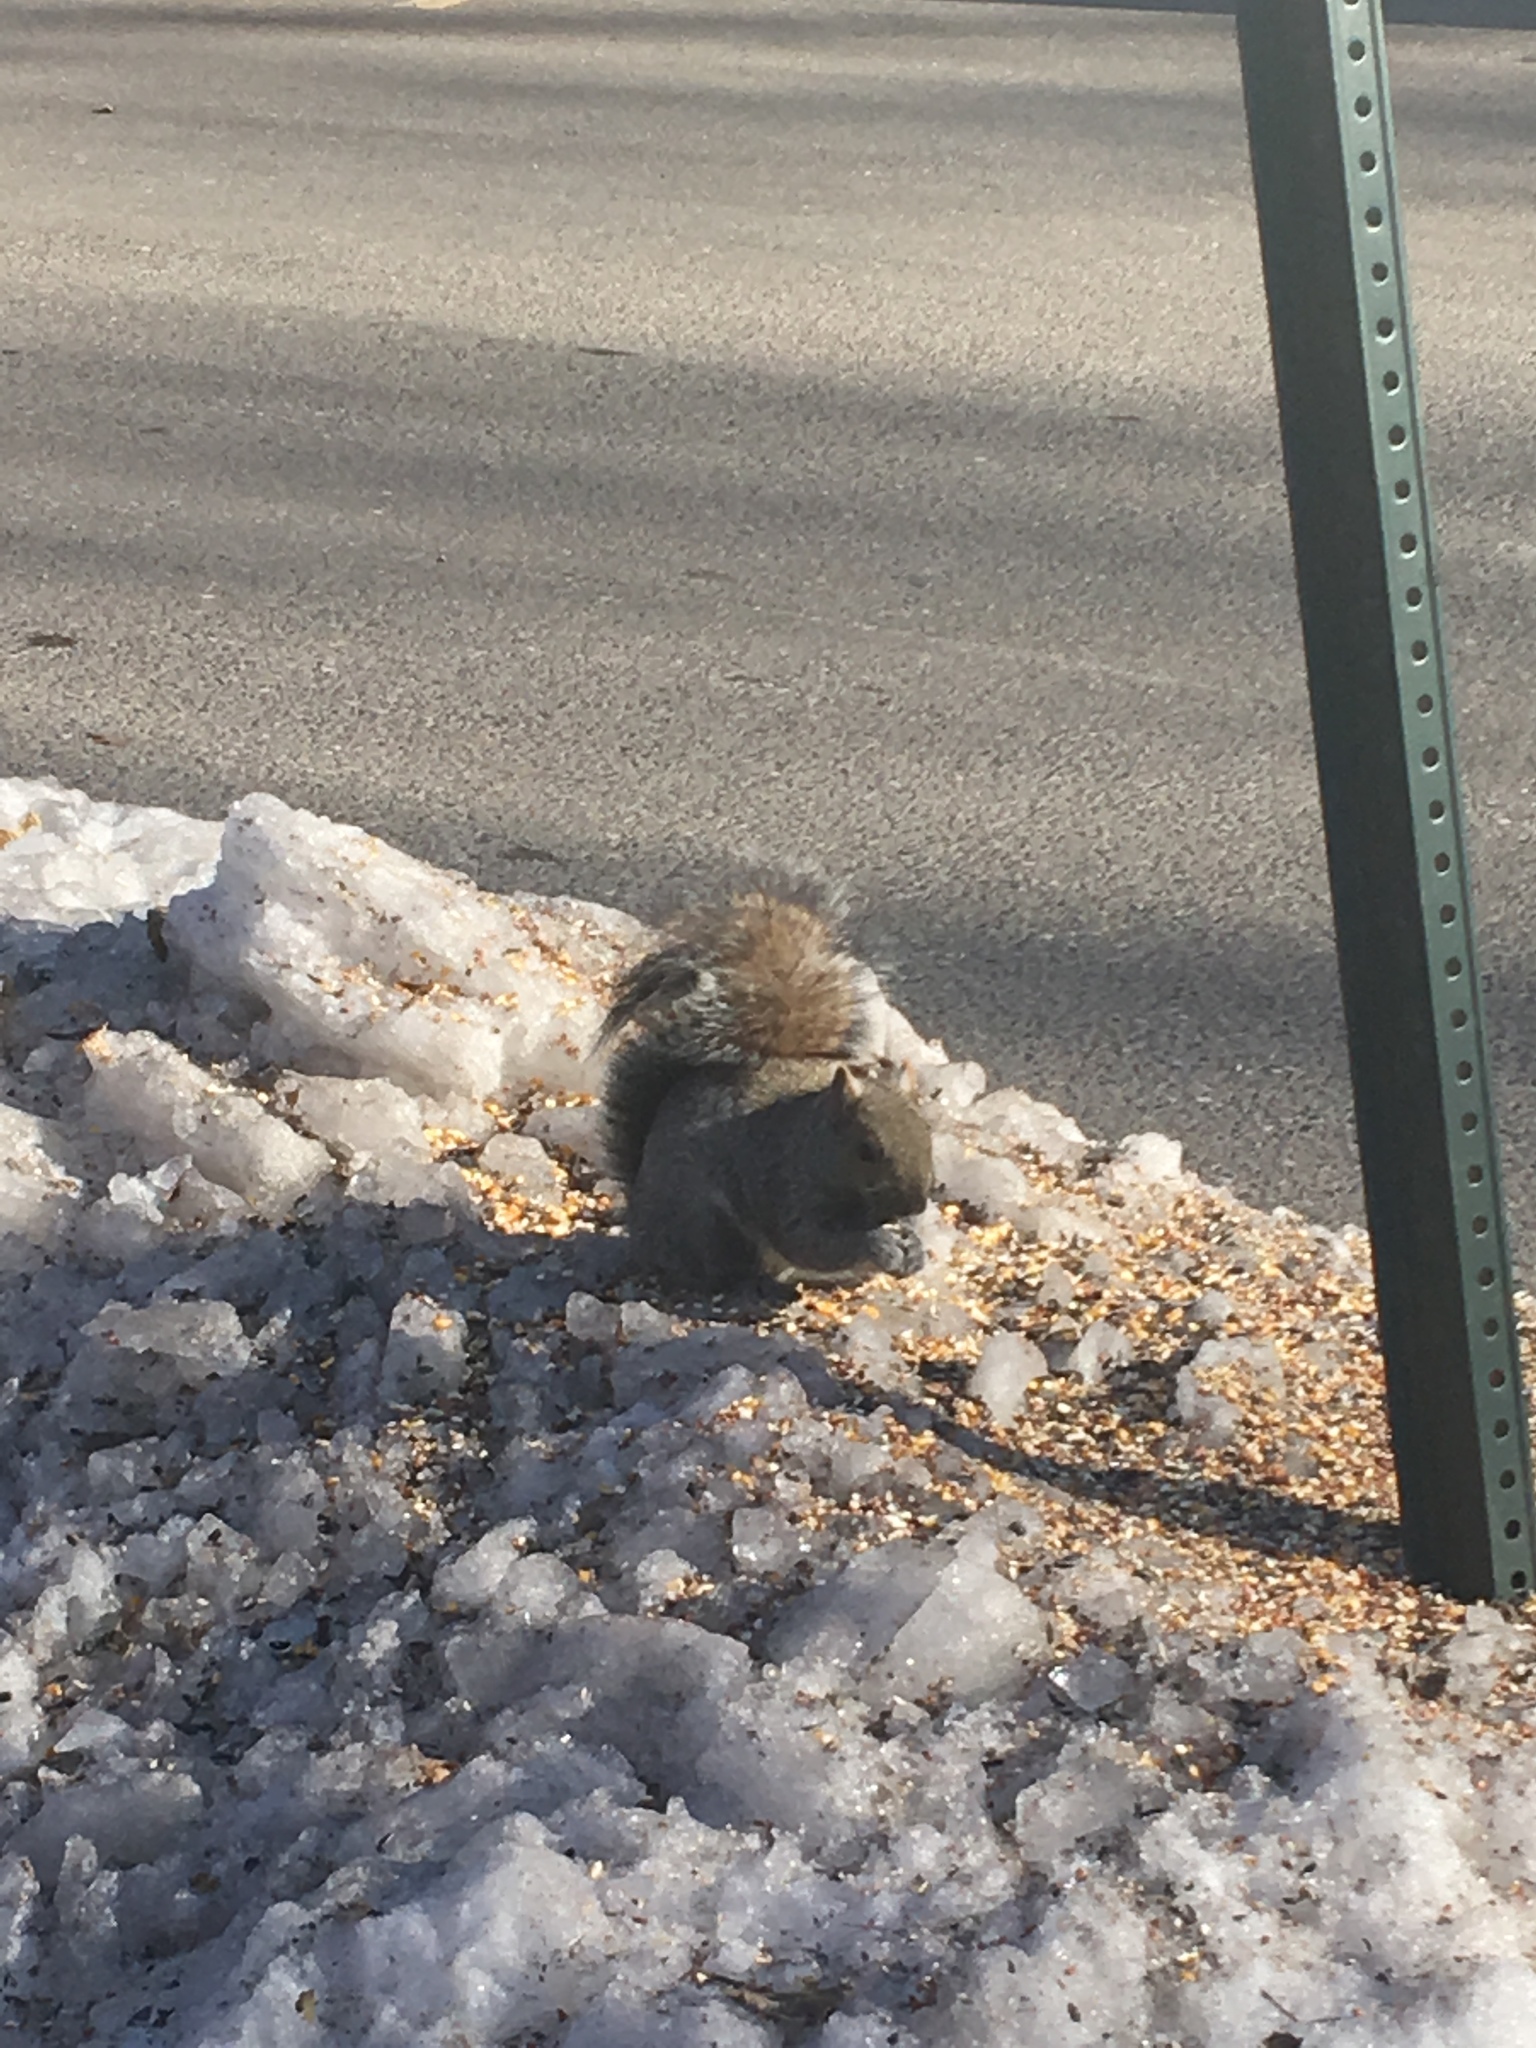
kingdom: Animalia
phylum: Chordata
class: Mammalia
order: Rodentia
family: Sciuridae
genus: Sciurus
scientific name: Sciurus carolinensis
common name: Eastern gray squirrel
